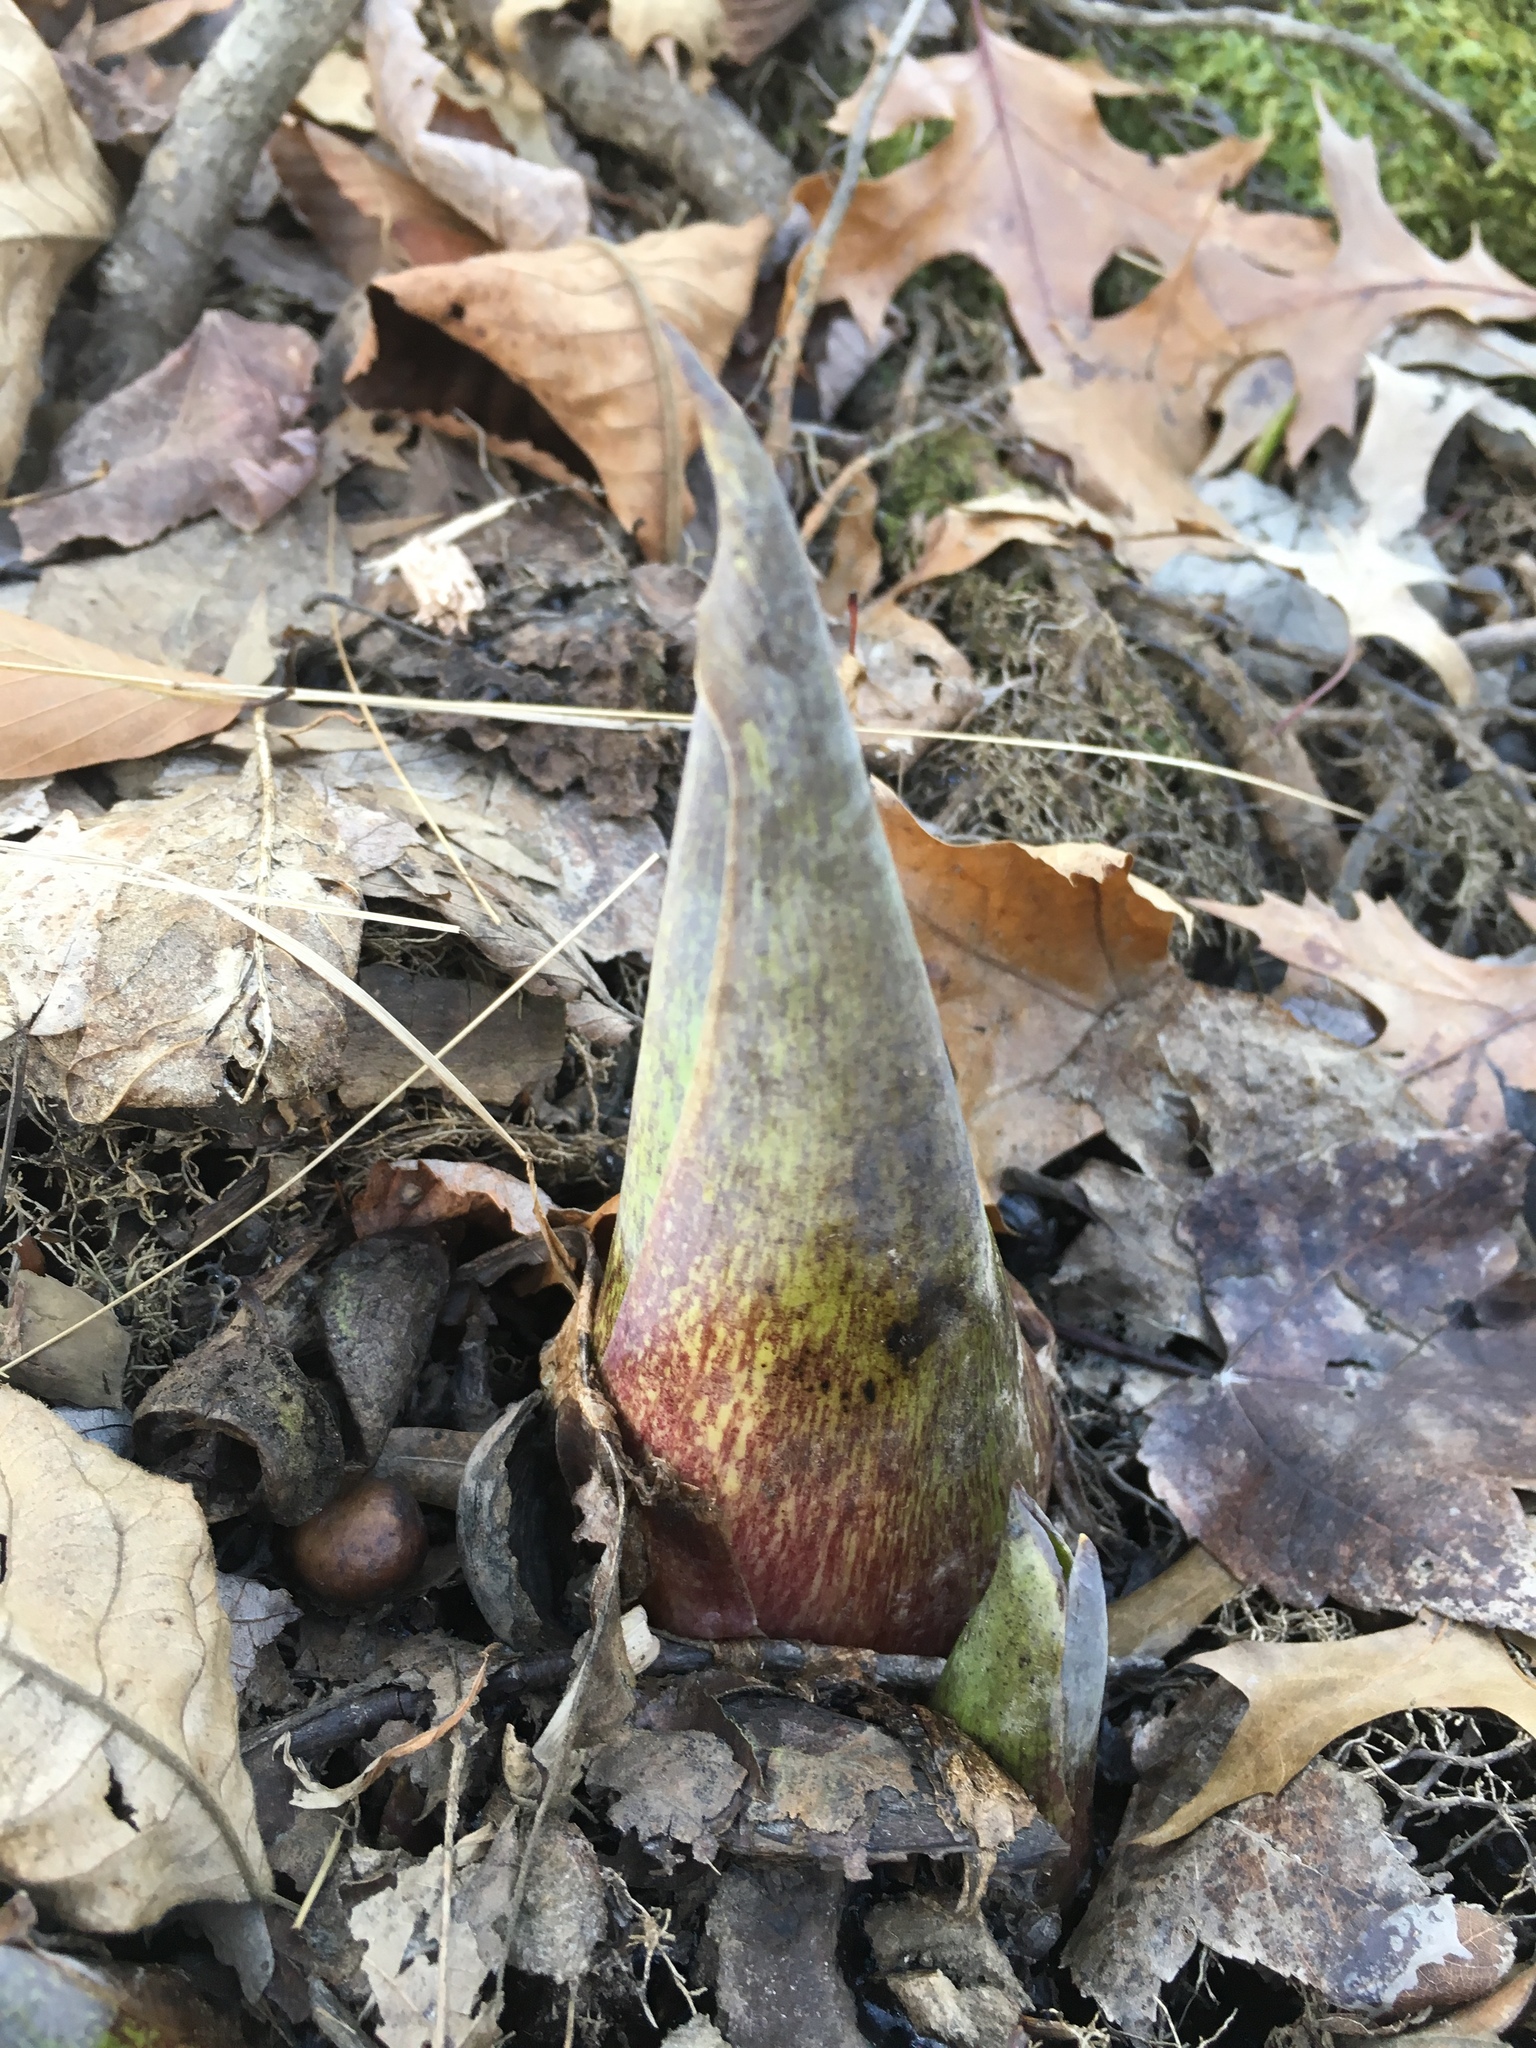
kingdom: Plantae
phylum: Tracheophyta
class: Liliopsida
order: Alismatales
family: Araceae
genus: Symplocarpus
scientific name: Symplocarpus foetidus
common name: Eastern skunk cabbage
